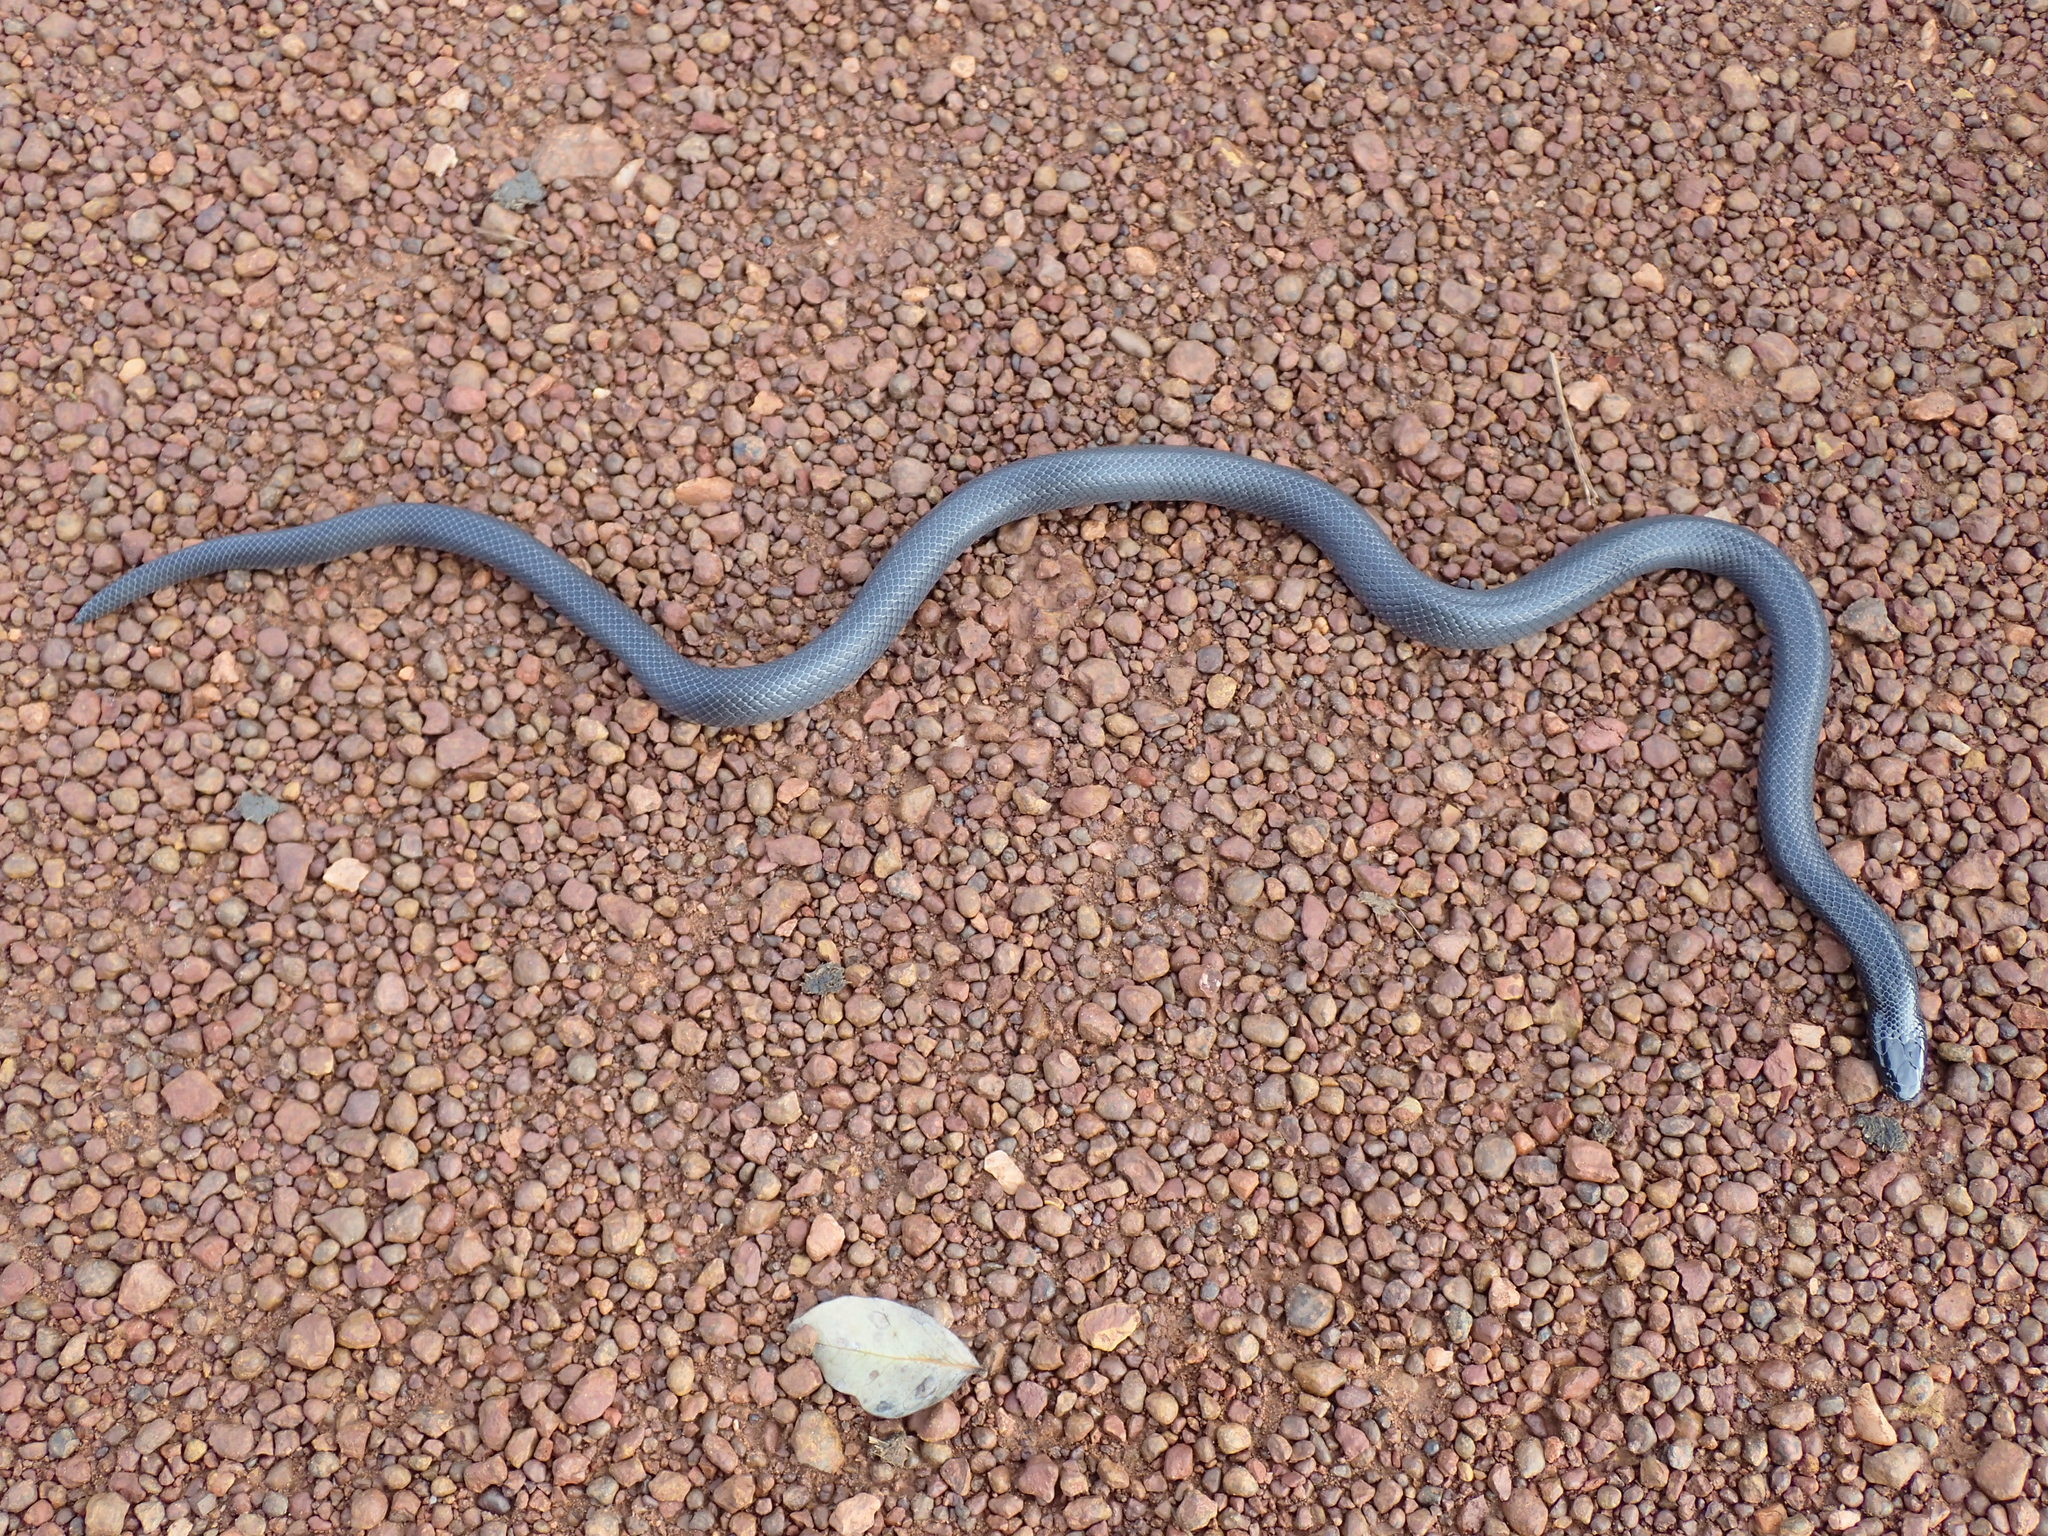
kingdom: Animalia
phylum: Chordata
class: Squamata
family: Atractaspididae
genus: Atractaspis
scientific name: Atractaspis congica
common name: Congo burrowing asp
